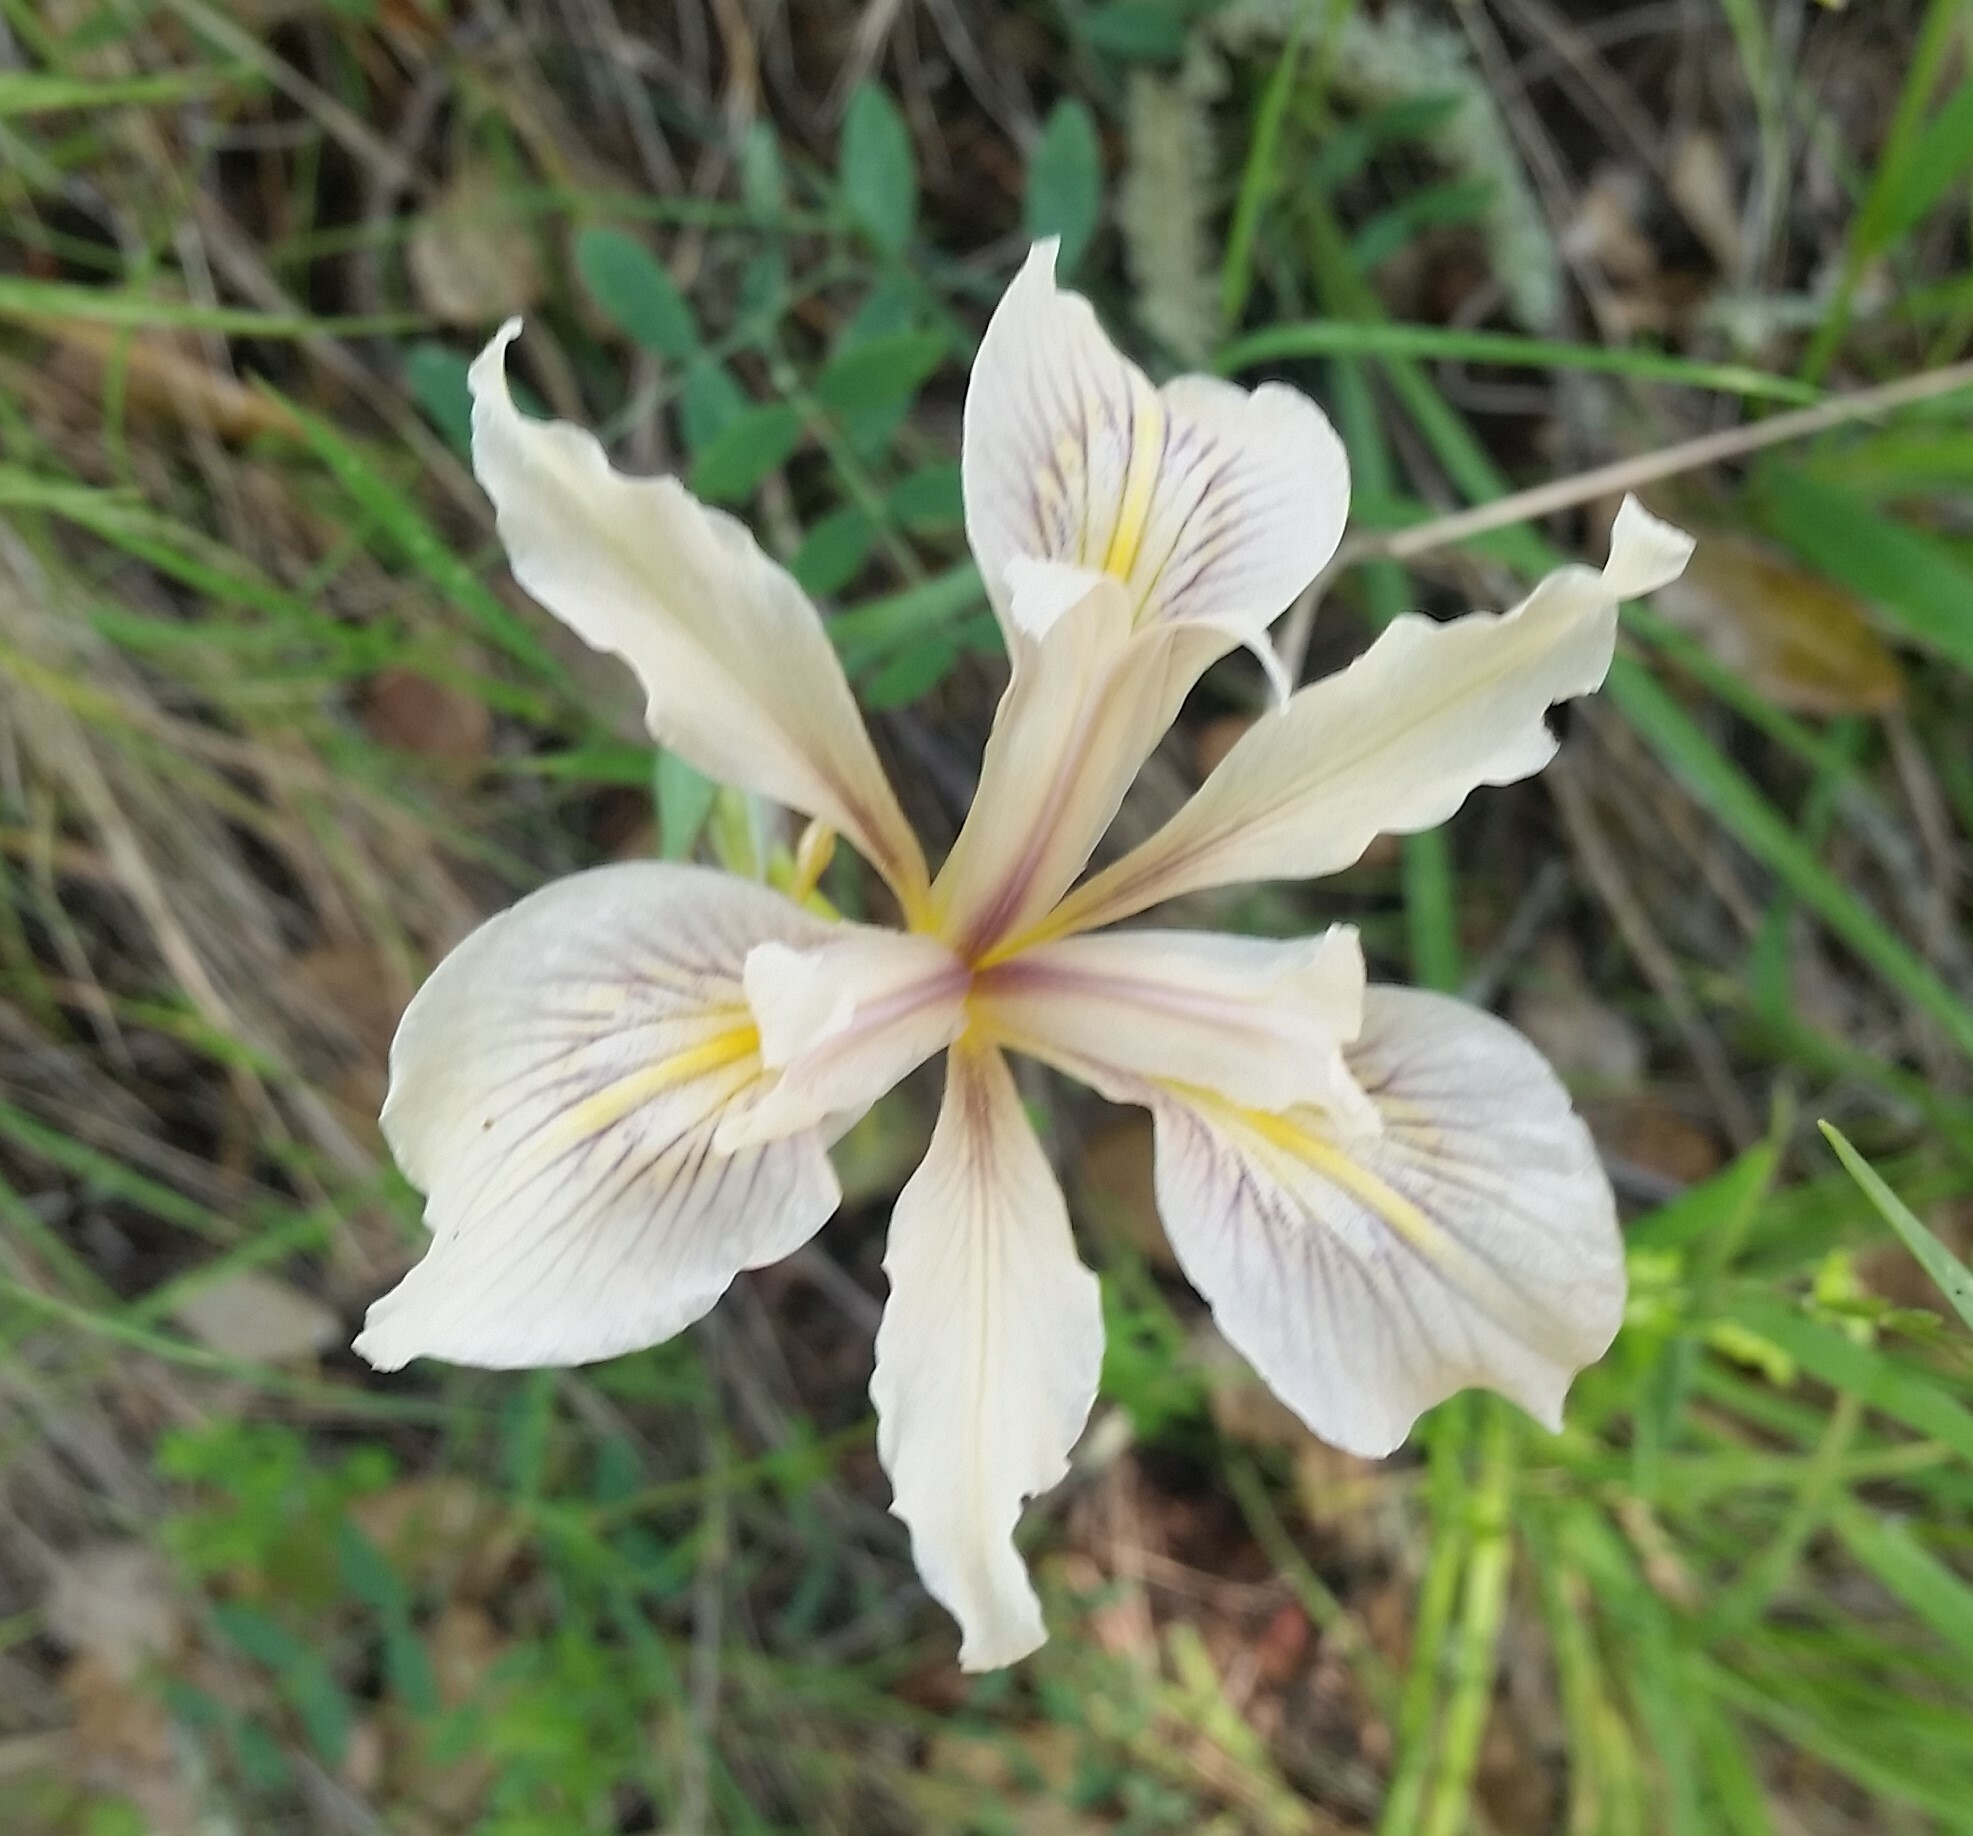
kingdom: Plantae
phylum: Tracheophyta
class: Liliopsida
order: Asparagales
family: Iridaceae
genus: Iris
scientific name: Iris fernaldii
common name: Fernald's iris
